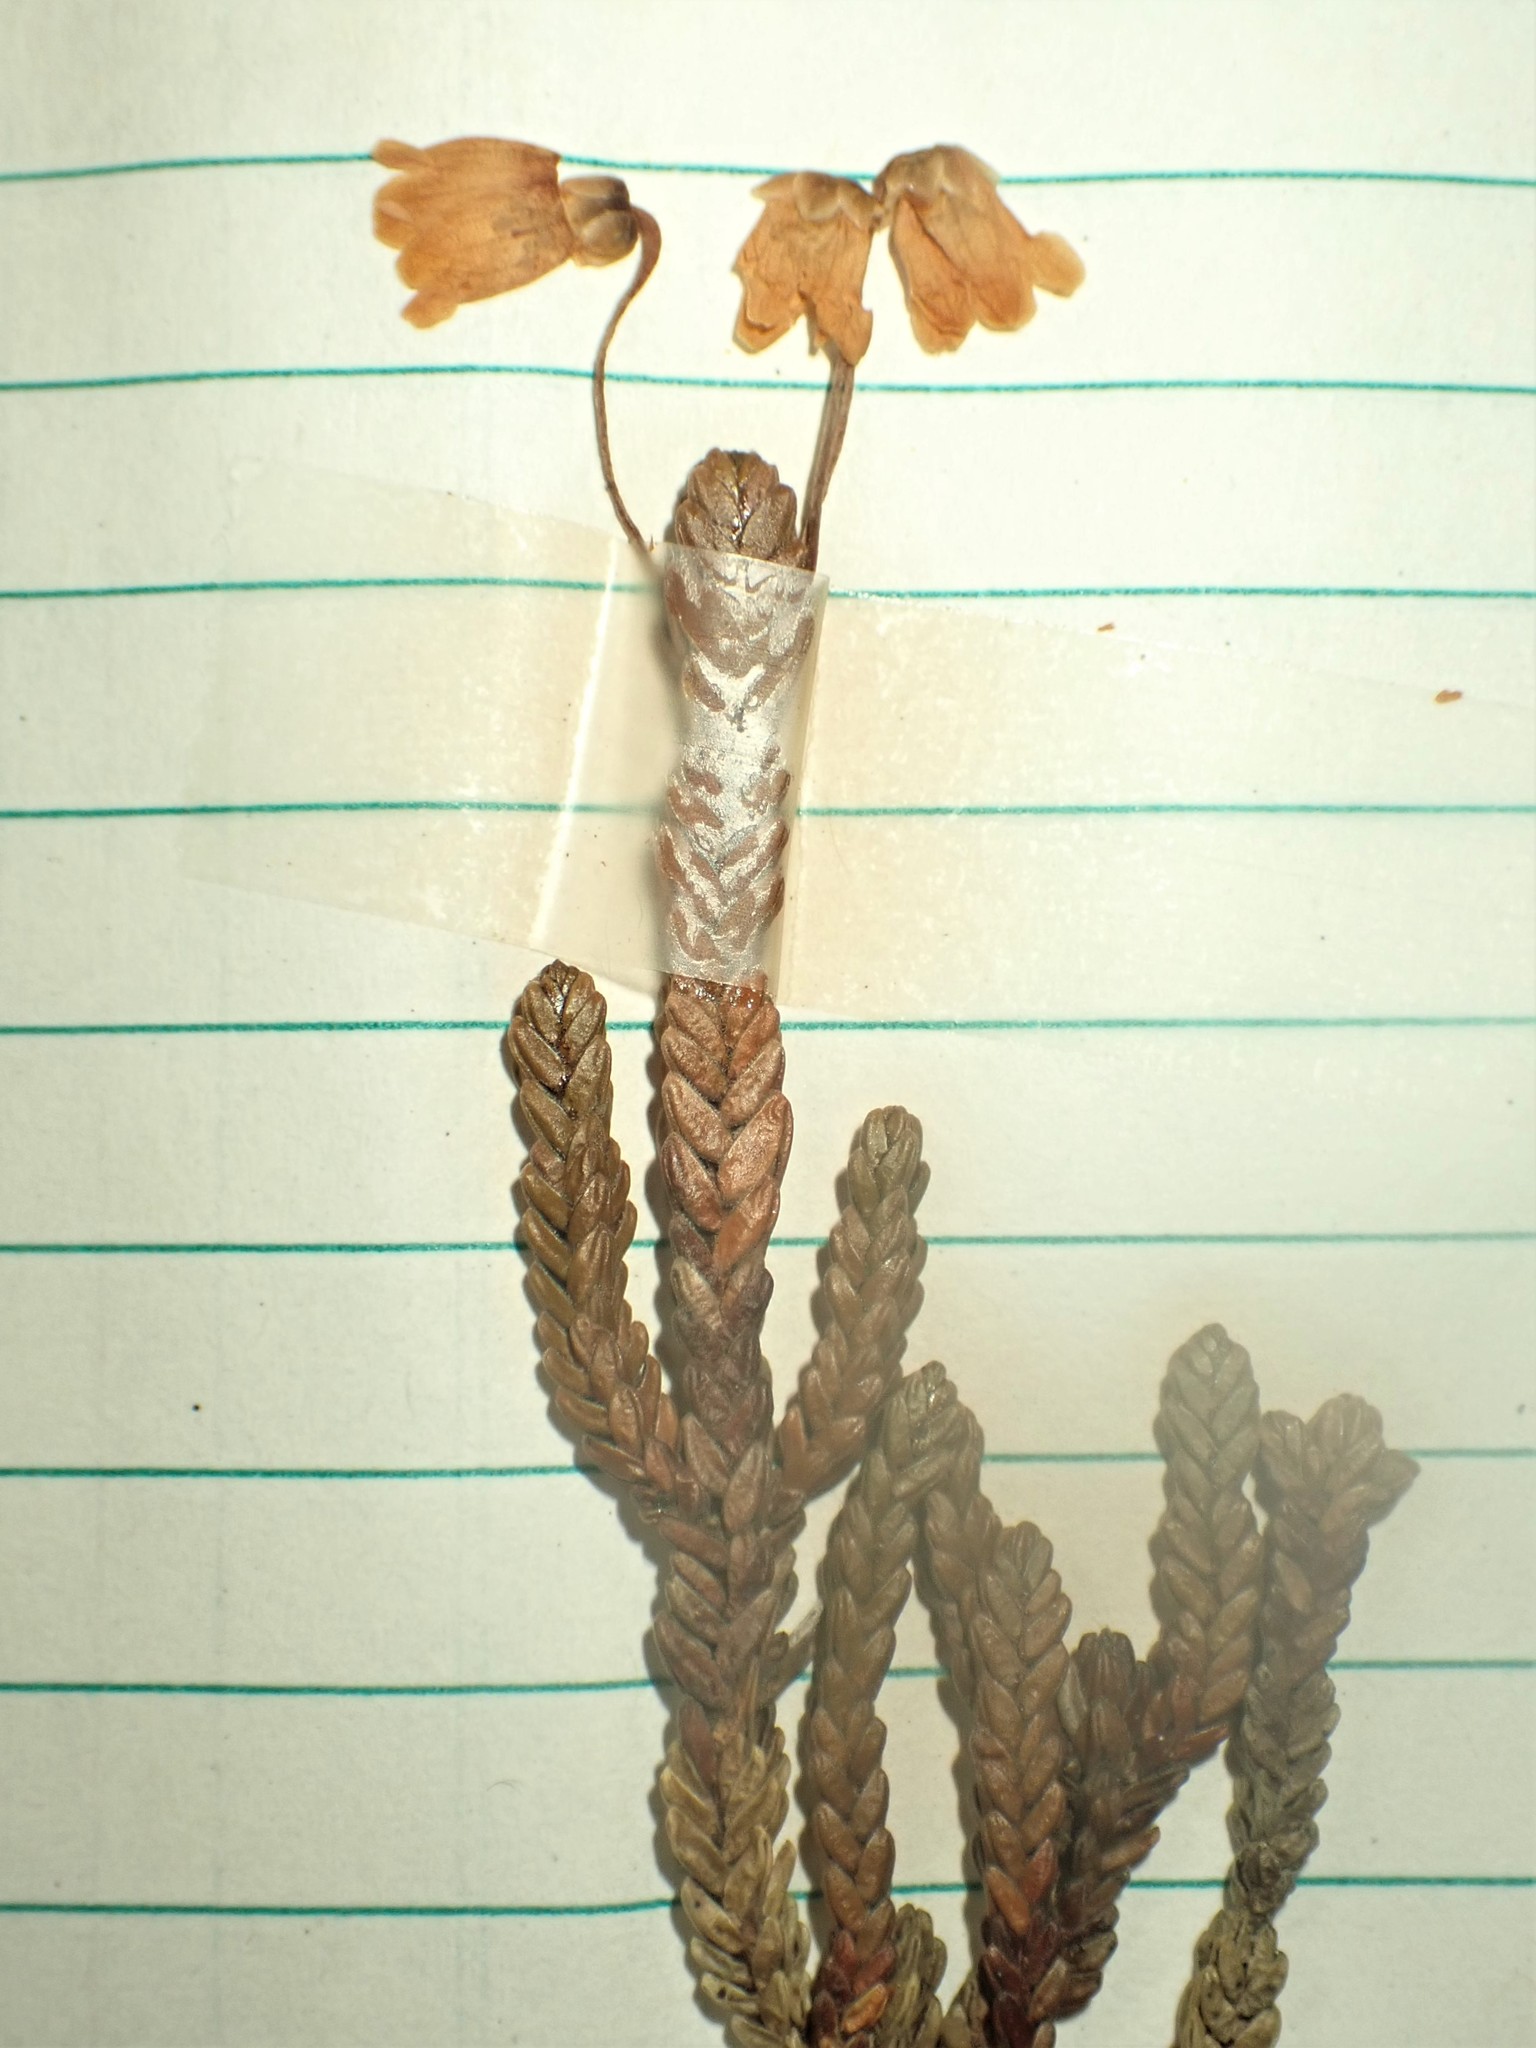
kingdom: Plantae
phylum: Tracheophyta
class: Magnoliopsida
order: Ericales
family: Ericaceae
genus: Cassiope
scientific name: Cassiope tetragona
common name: Arctic bell heather
